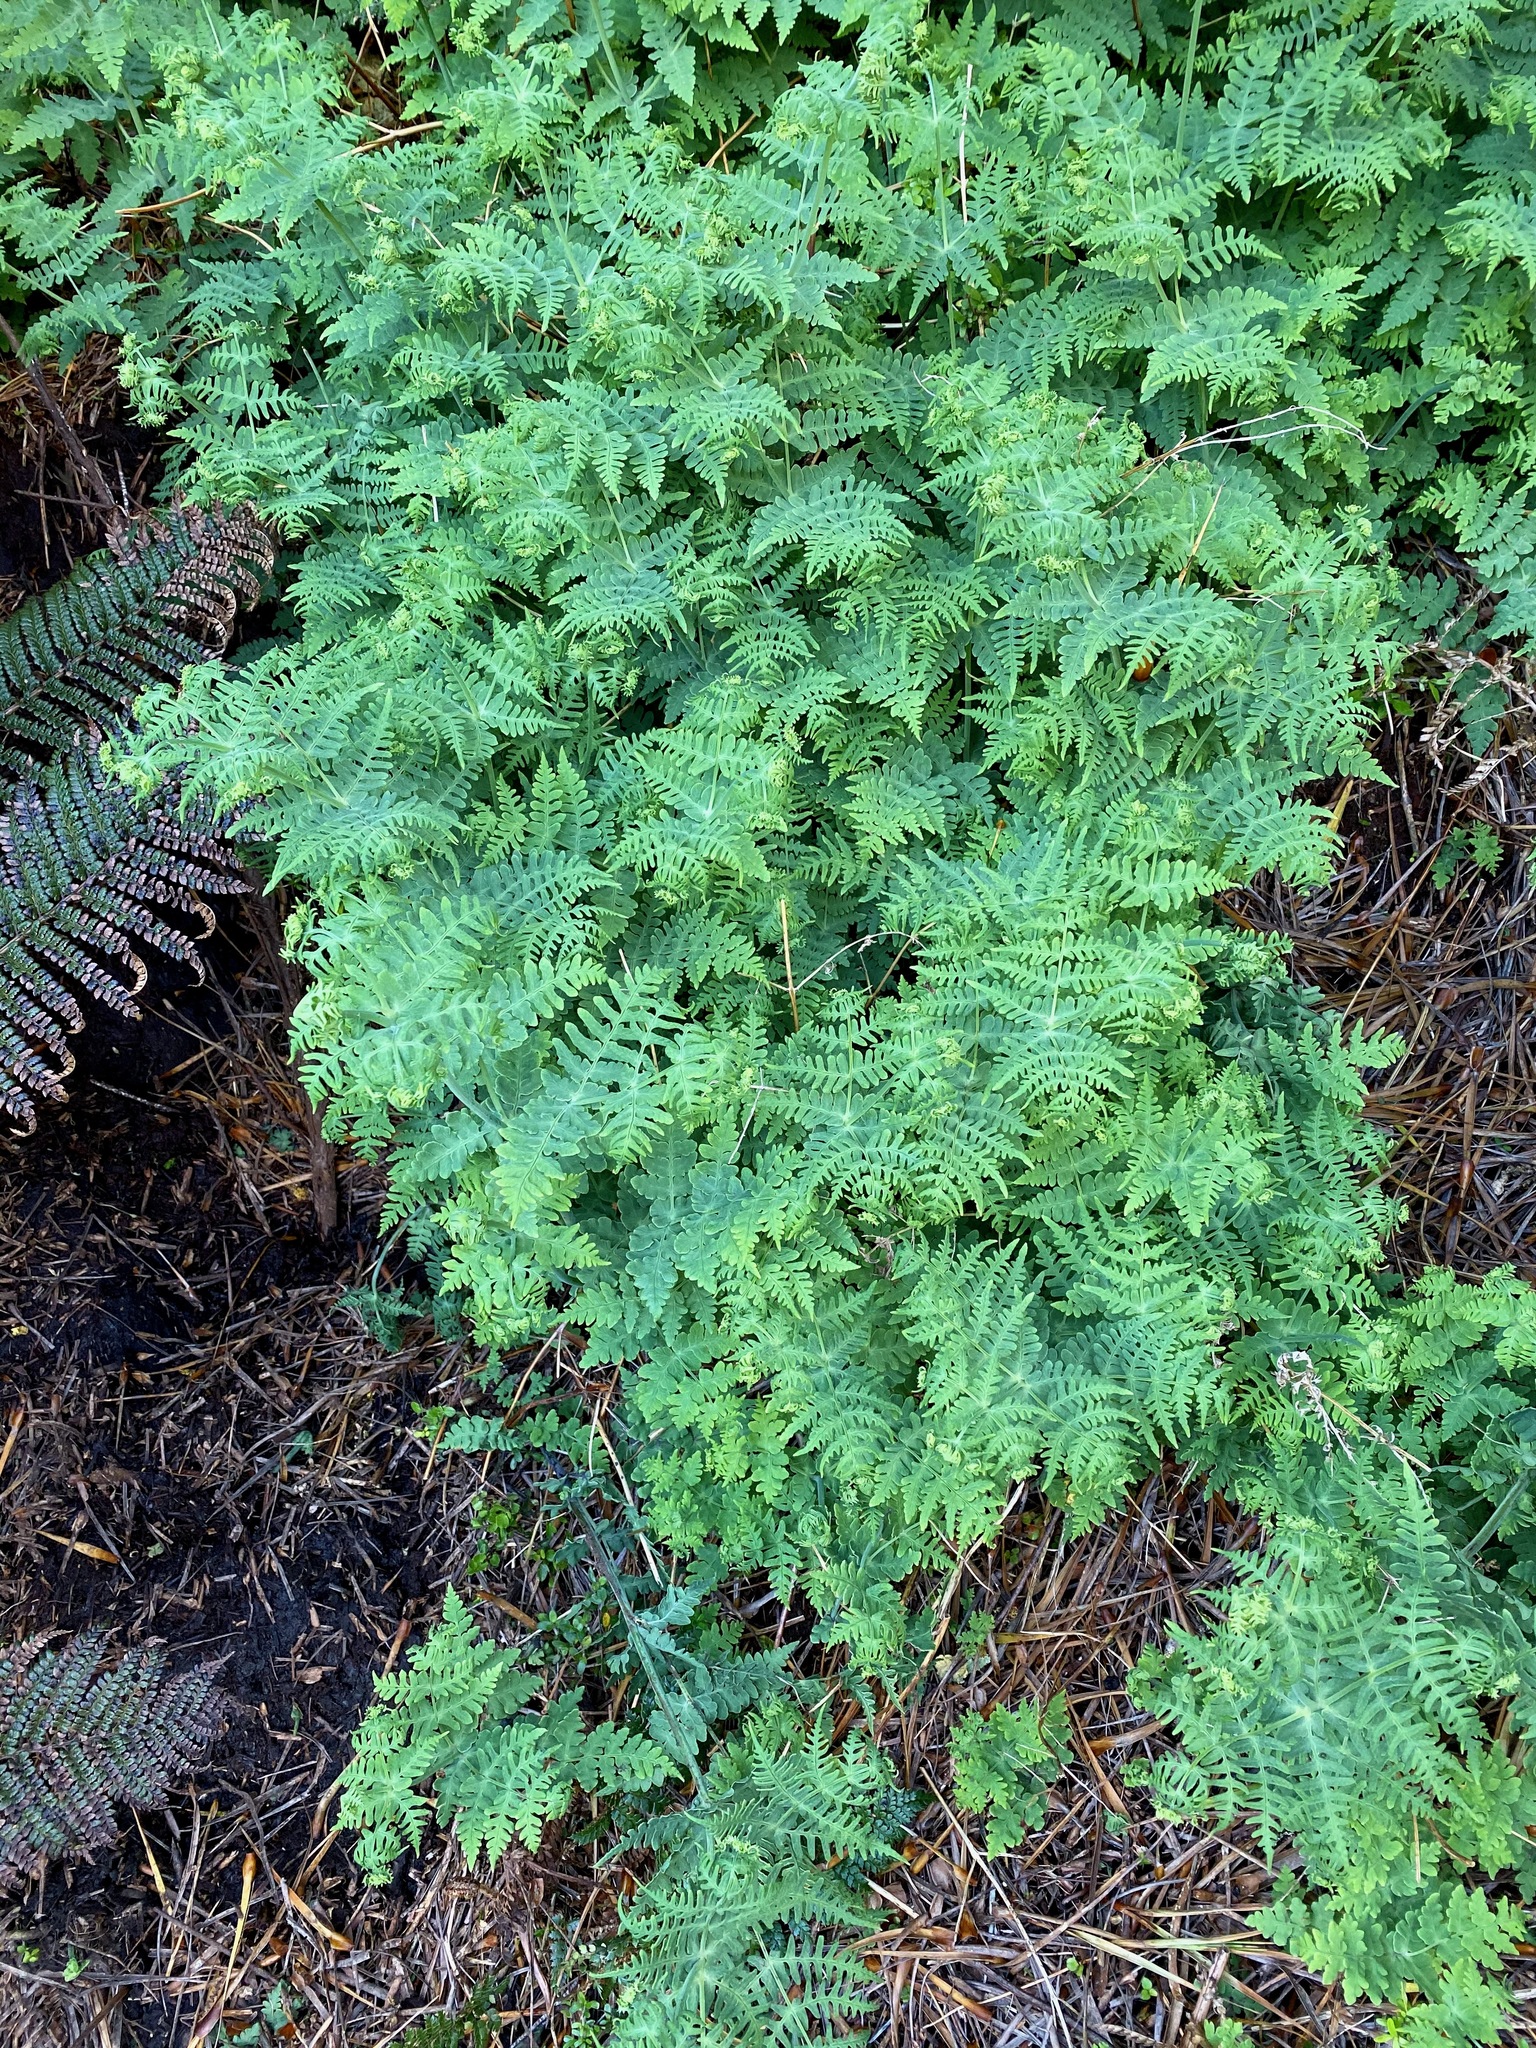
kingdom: Plantae
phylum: Tracheophyta
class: Polypodiopsida
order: Polypodiales
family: Dennstaedtiaceae
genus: Histiopteris
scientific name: Histiopteris incisa
